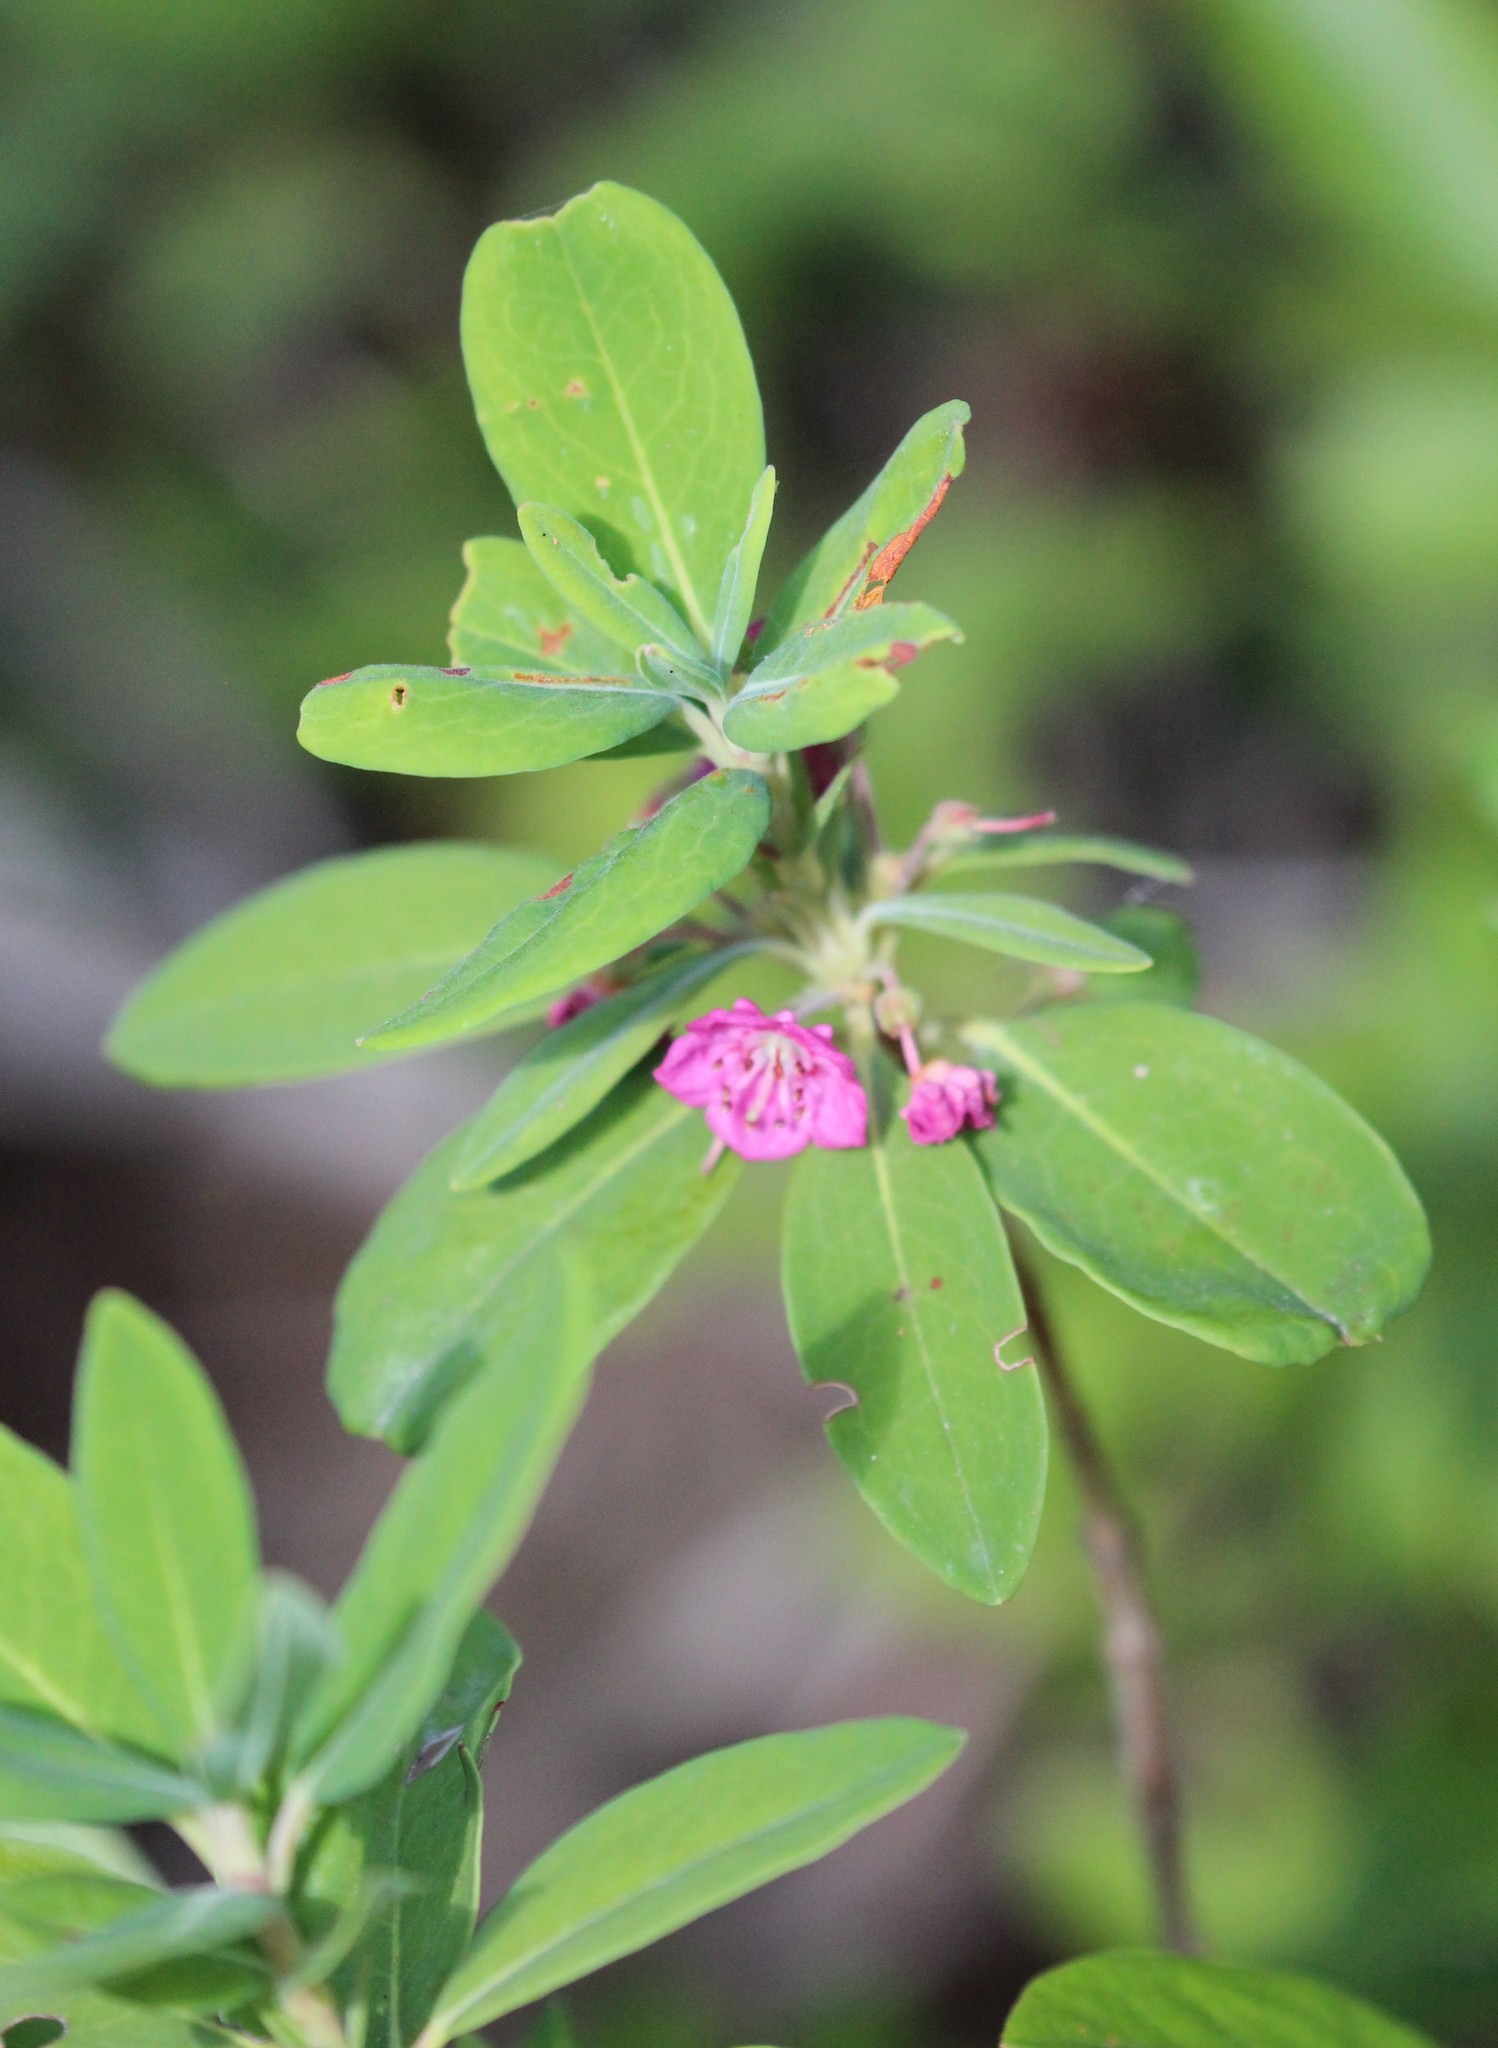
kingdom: Plantae
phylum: Tracheophyta
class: Magnoliopsida
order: Ericales
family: Ericaceae
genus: Kalmia
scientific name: Kalmia angustifolia
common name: Sheep-laurel
